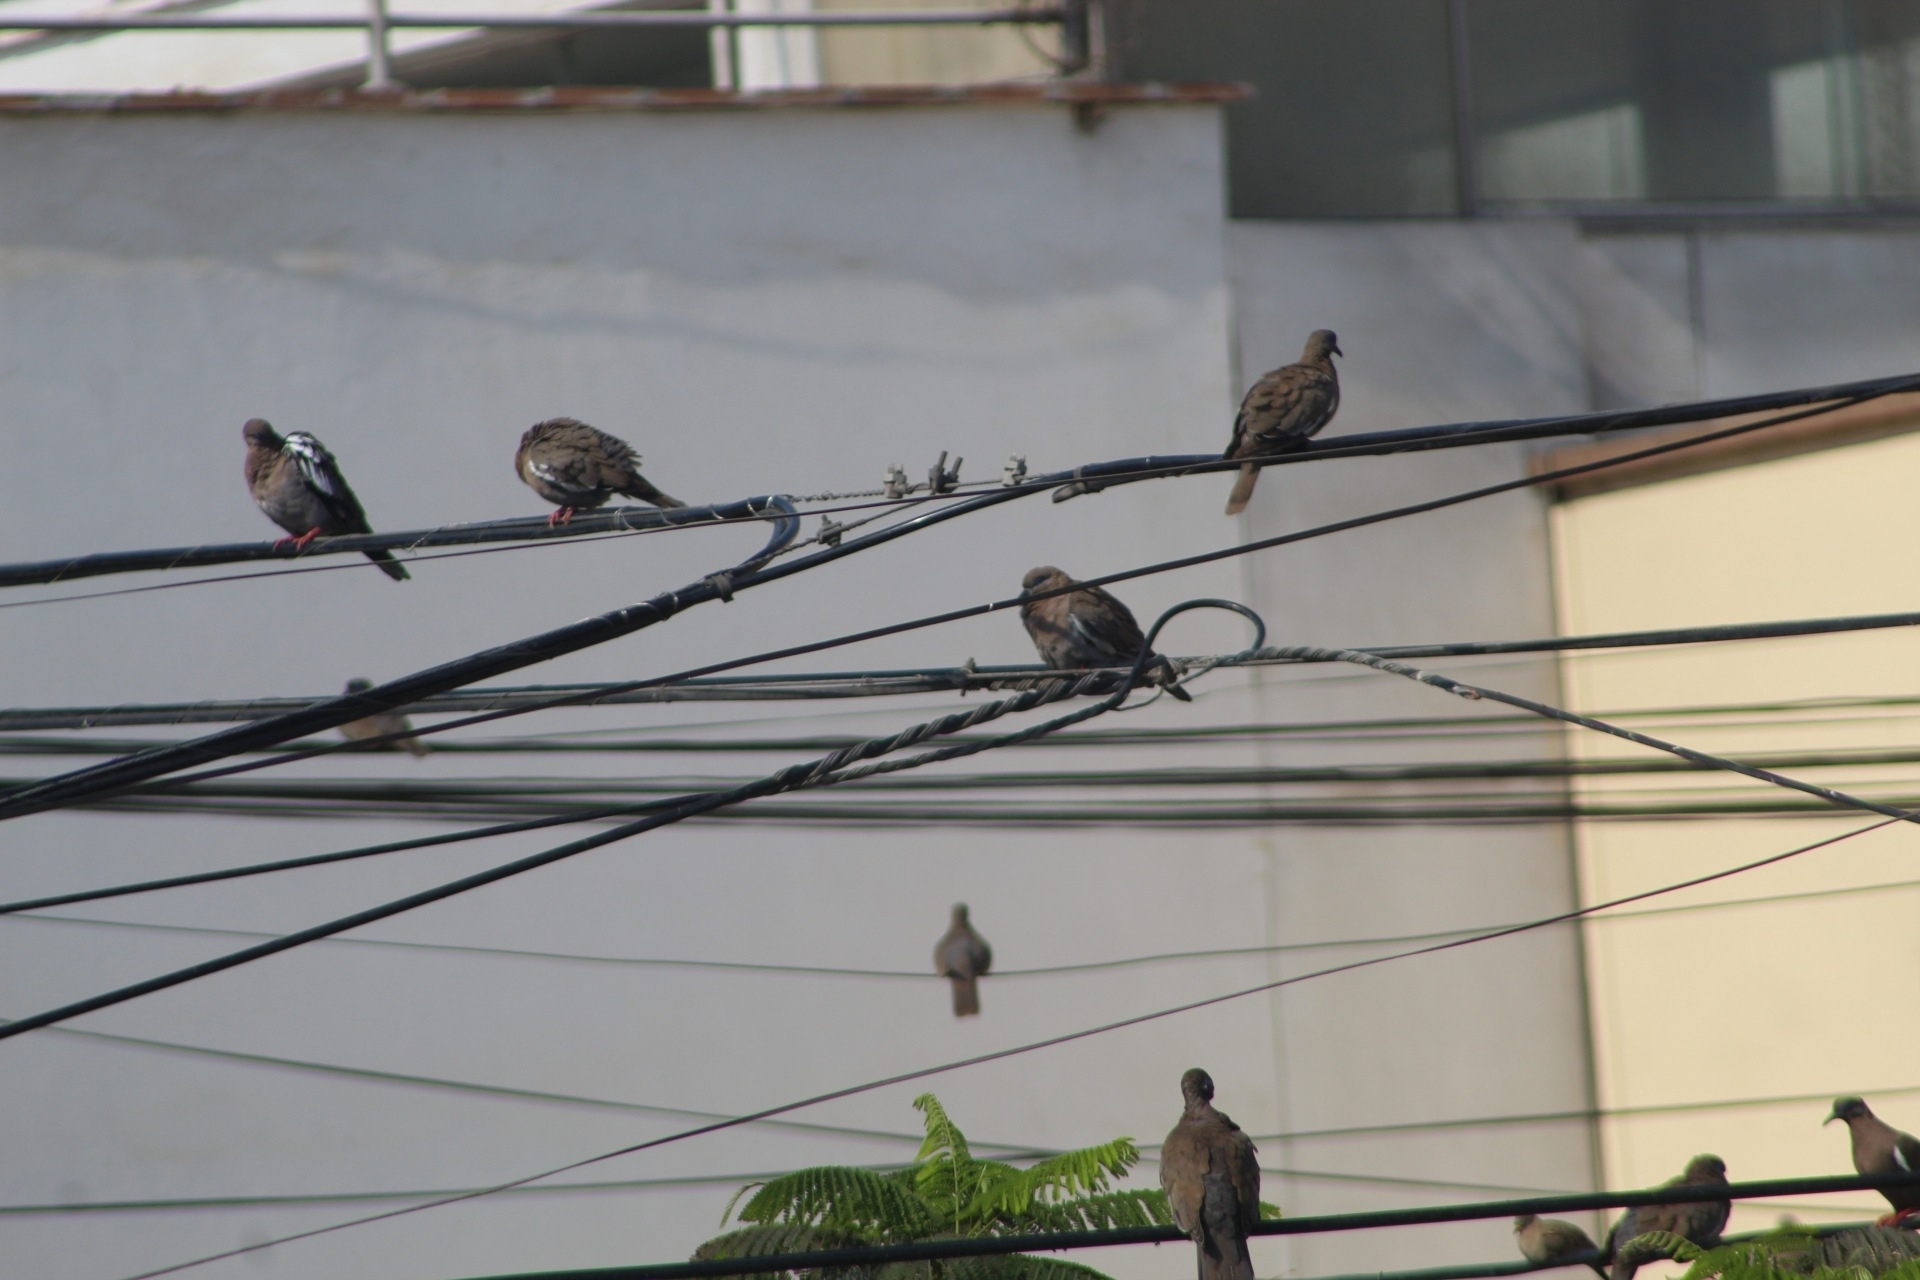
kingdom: Animalia
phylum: Chordata
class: Aves
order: Columbiformes
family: Columbidae
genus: Zenaida
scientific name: Zenaida meloda
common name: West peruvian dove
